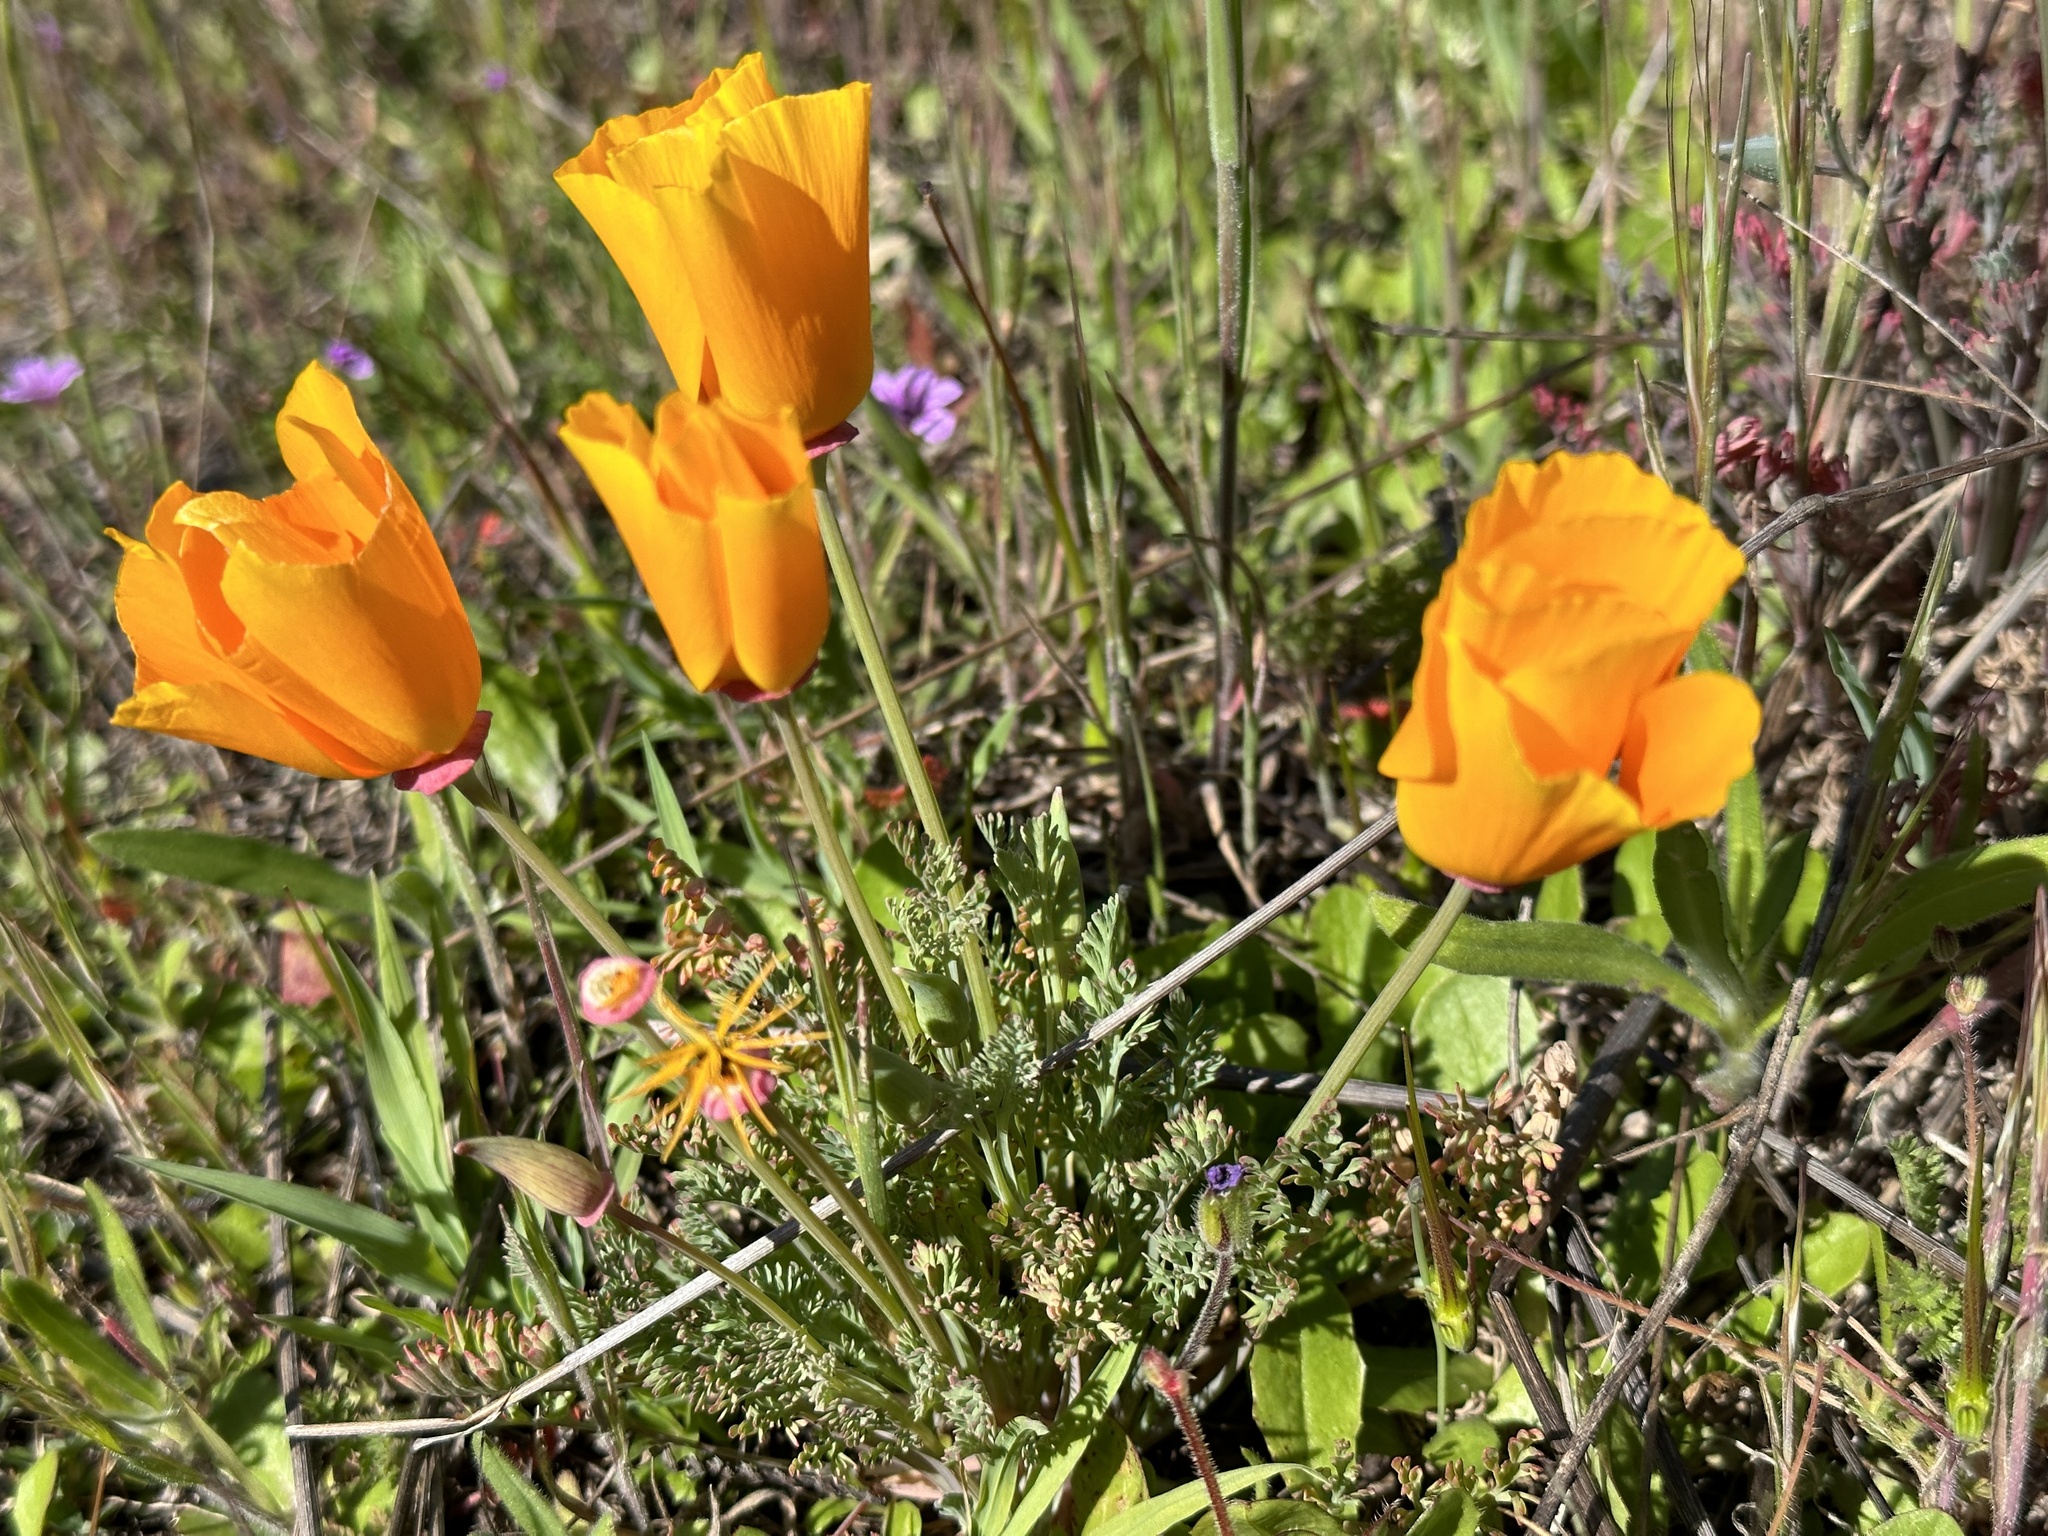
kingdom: Plantae
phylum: Tracheophyta
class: Magnoliopsida
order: Ranunculales
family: Papaveraceae
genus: Eschscholzia
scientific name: Eschscholzia californica
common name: California poppy
